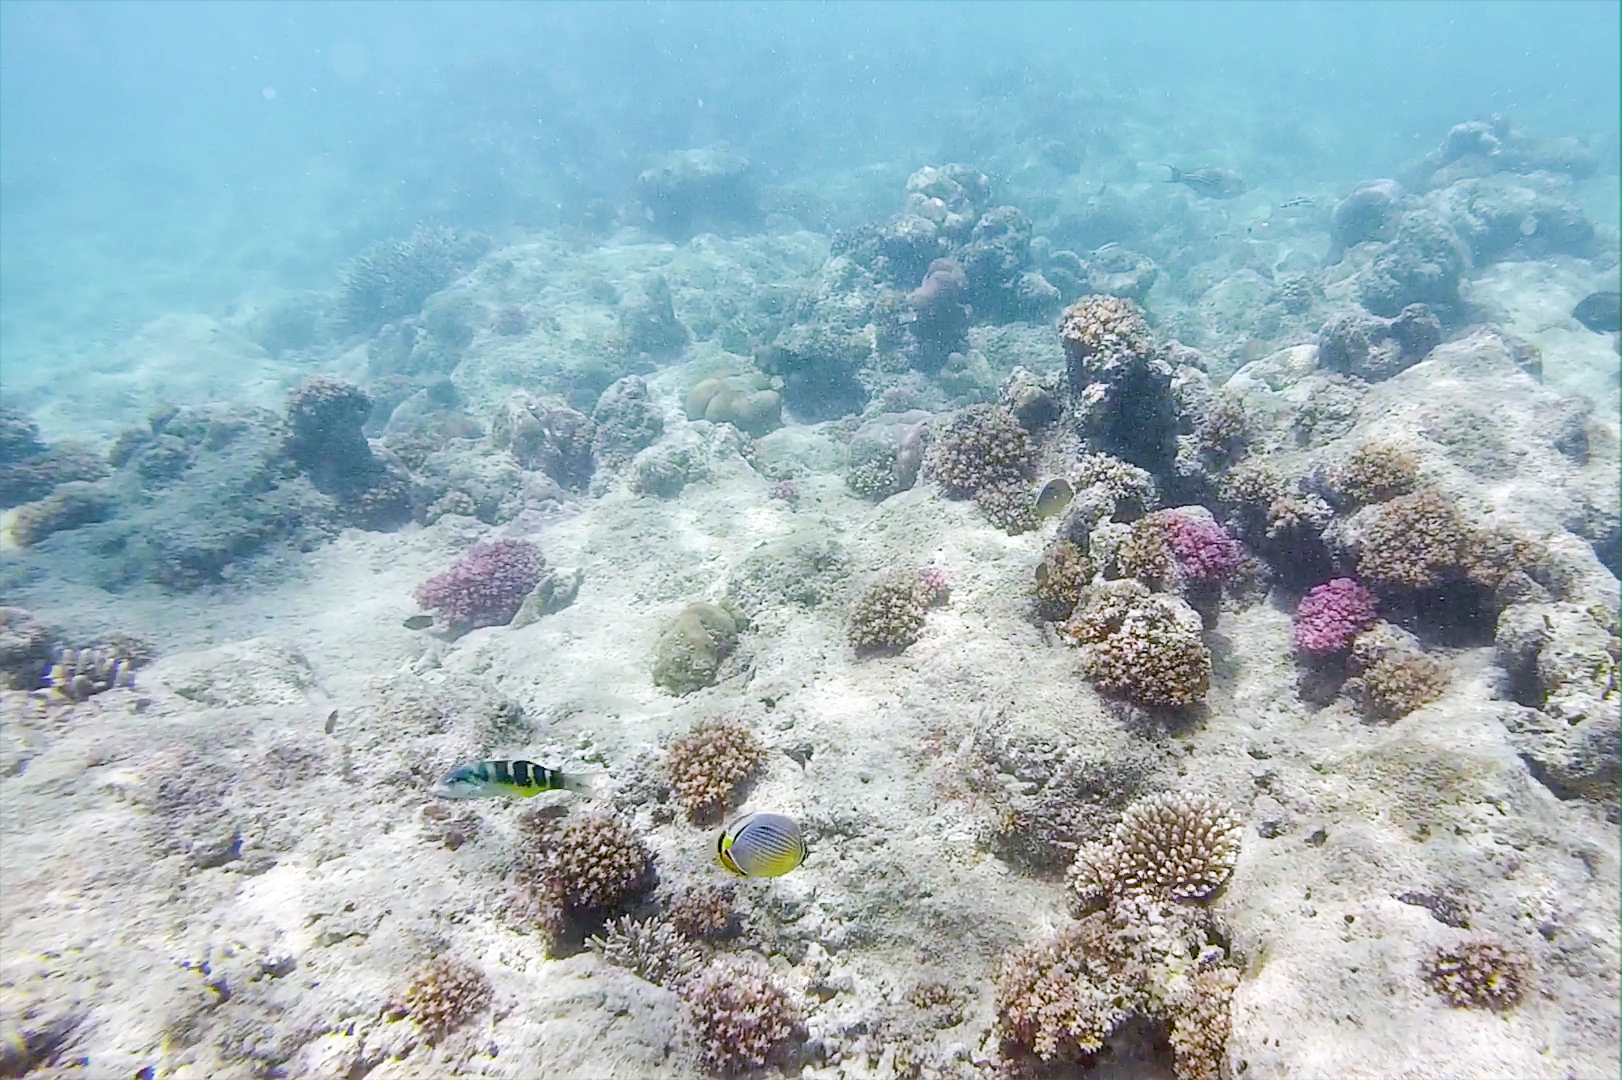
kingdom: Animalia
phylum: Chordata
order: Perciformes
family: Labridae
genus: Thalassoma
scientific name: Thalassoma jansenii
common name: Jansen's wrasse
